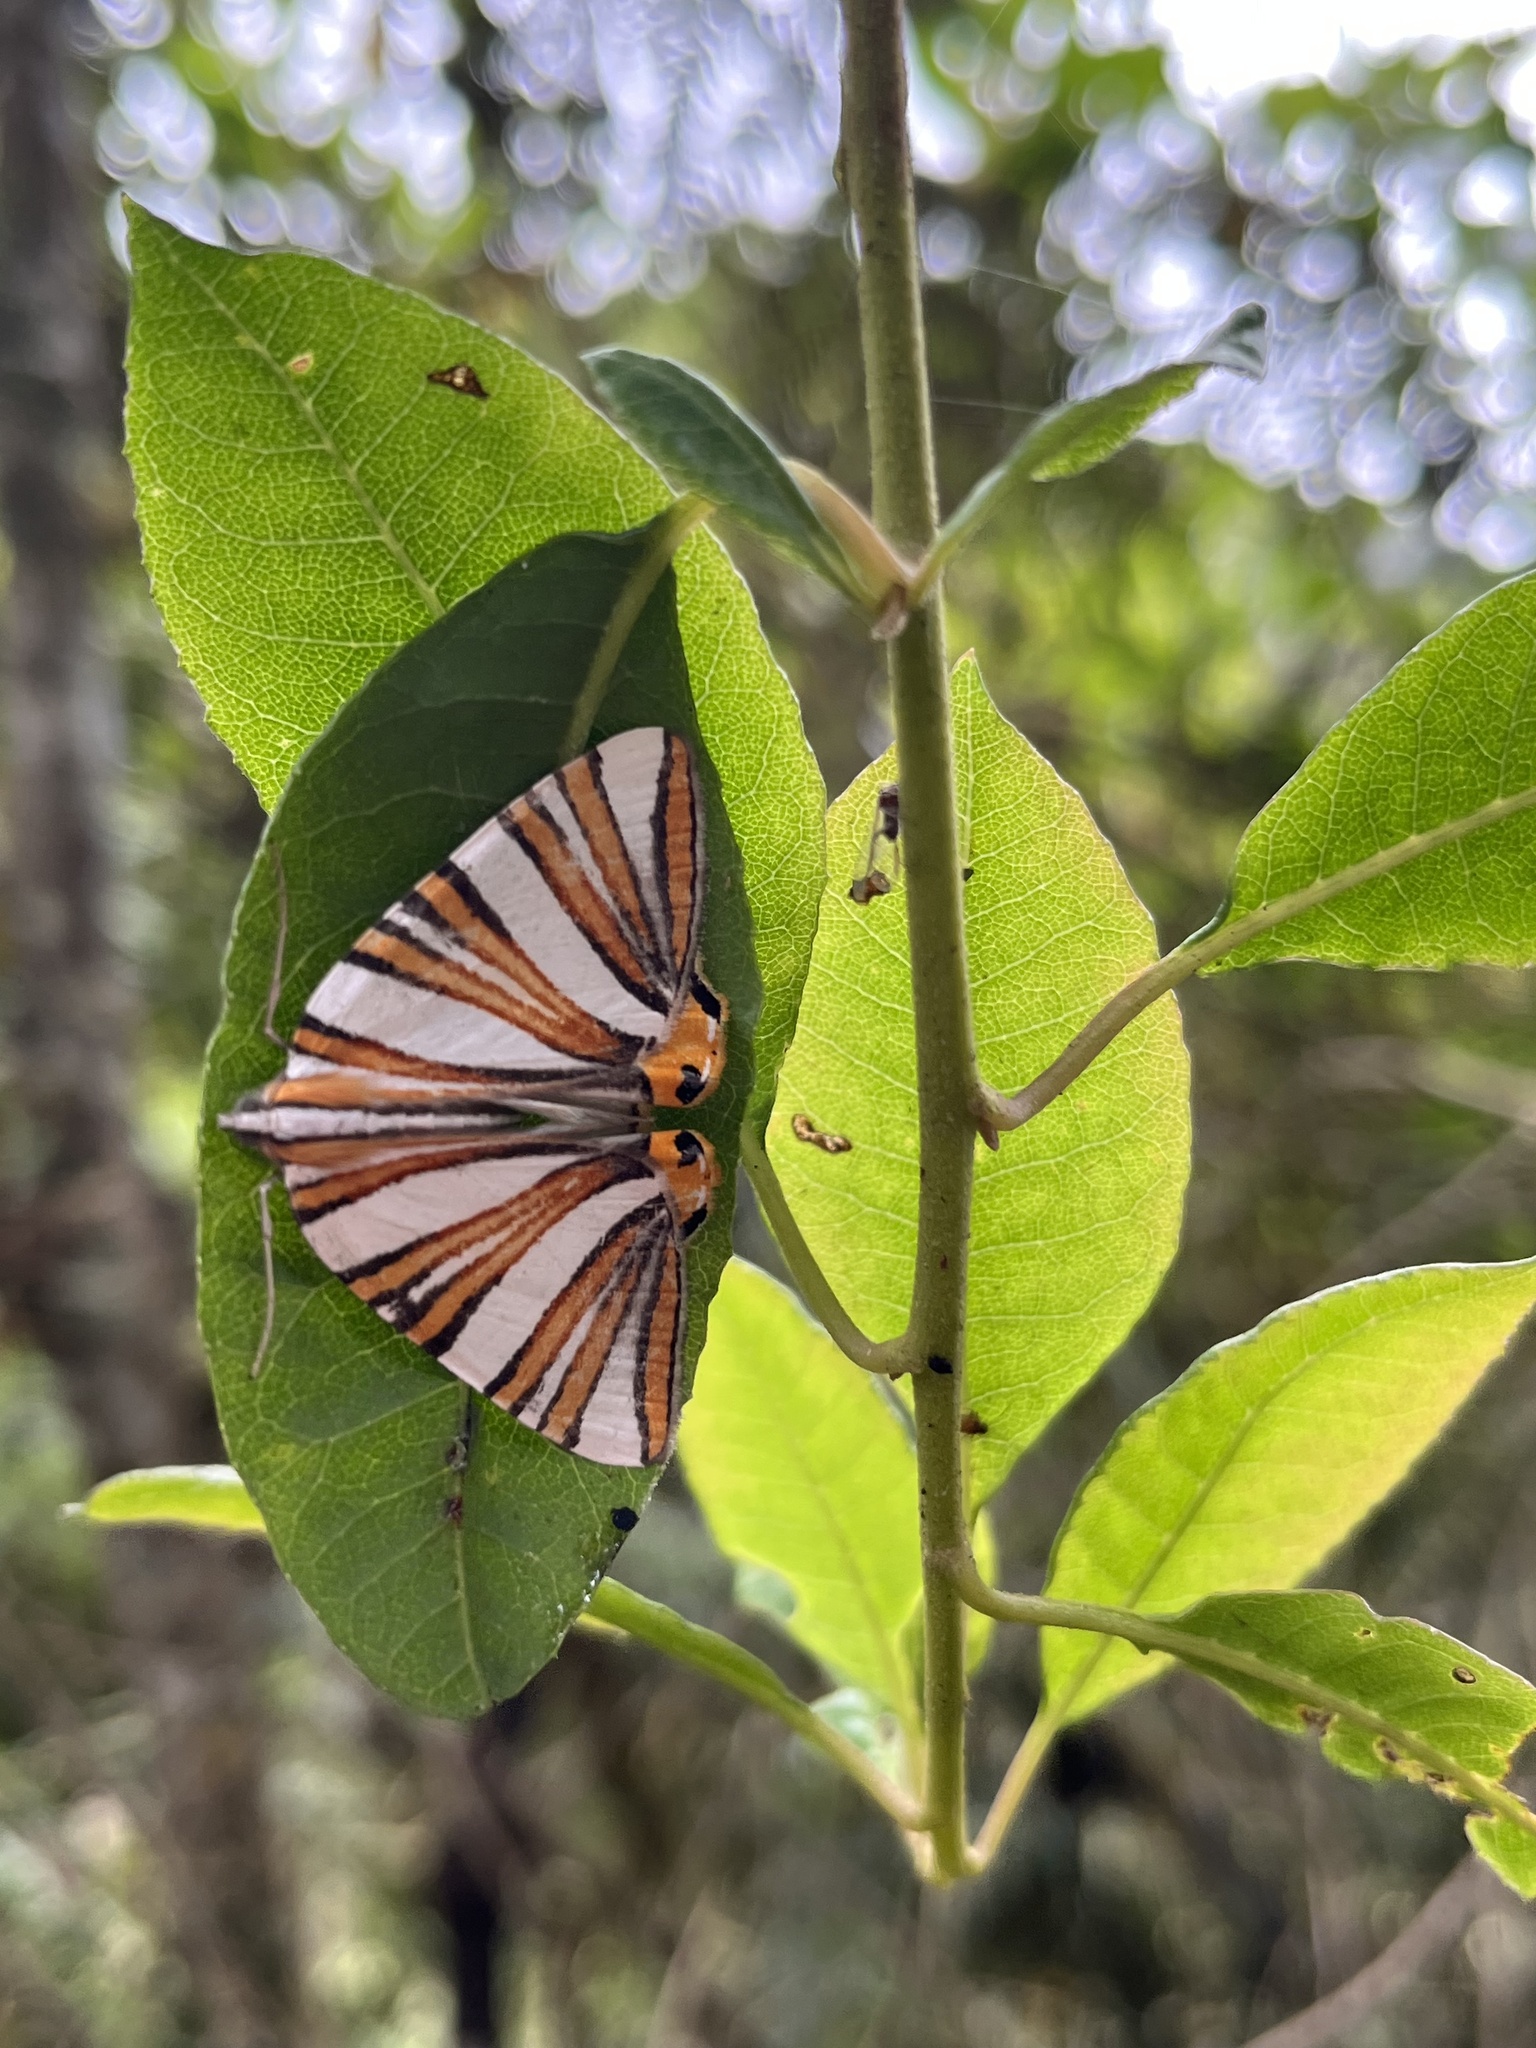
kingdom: Animalia
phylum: Arthropoda
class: Insecta
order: Lepidoptera
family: Geometridae
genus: Pityeja
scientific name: Pityeja histrionaria
